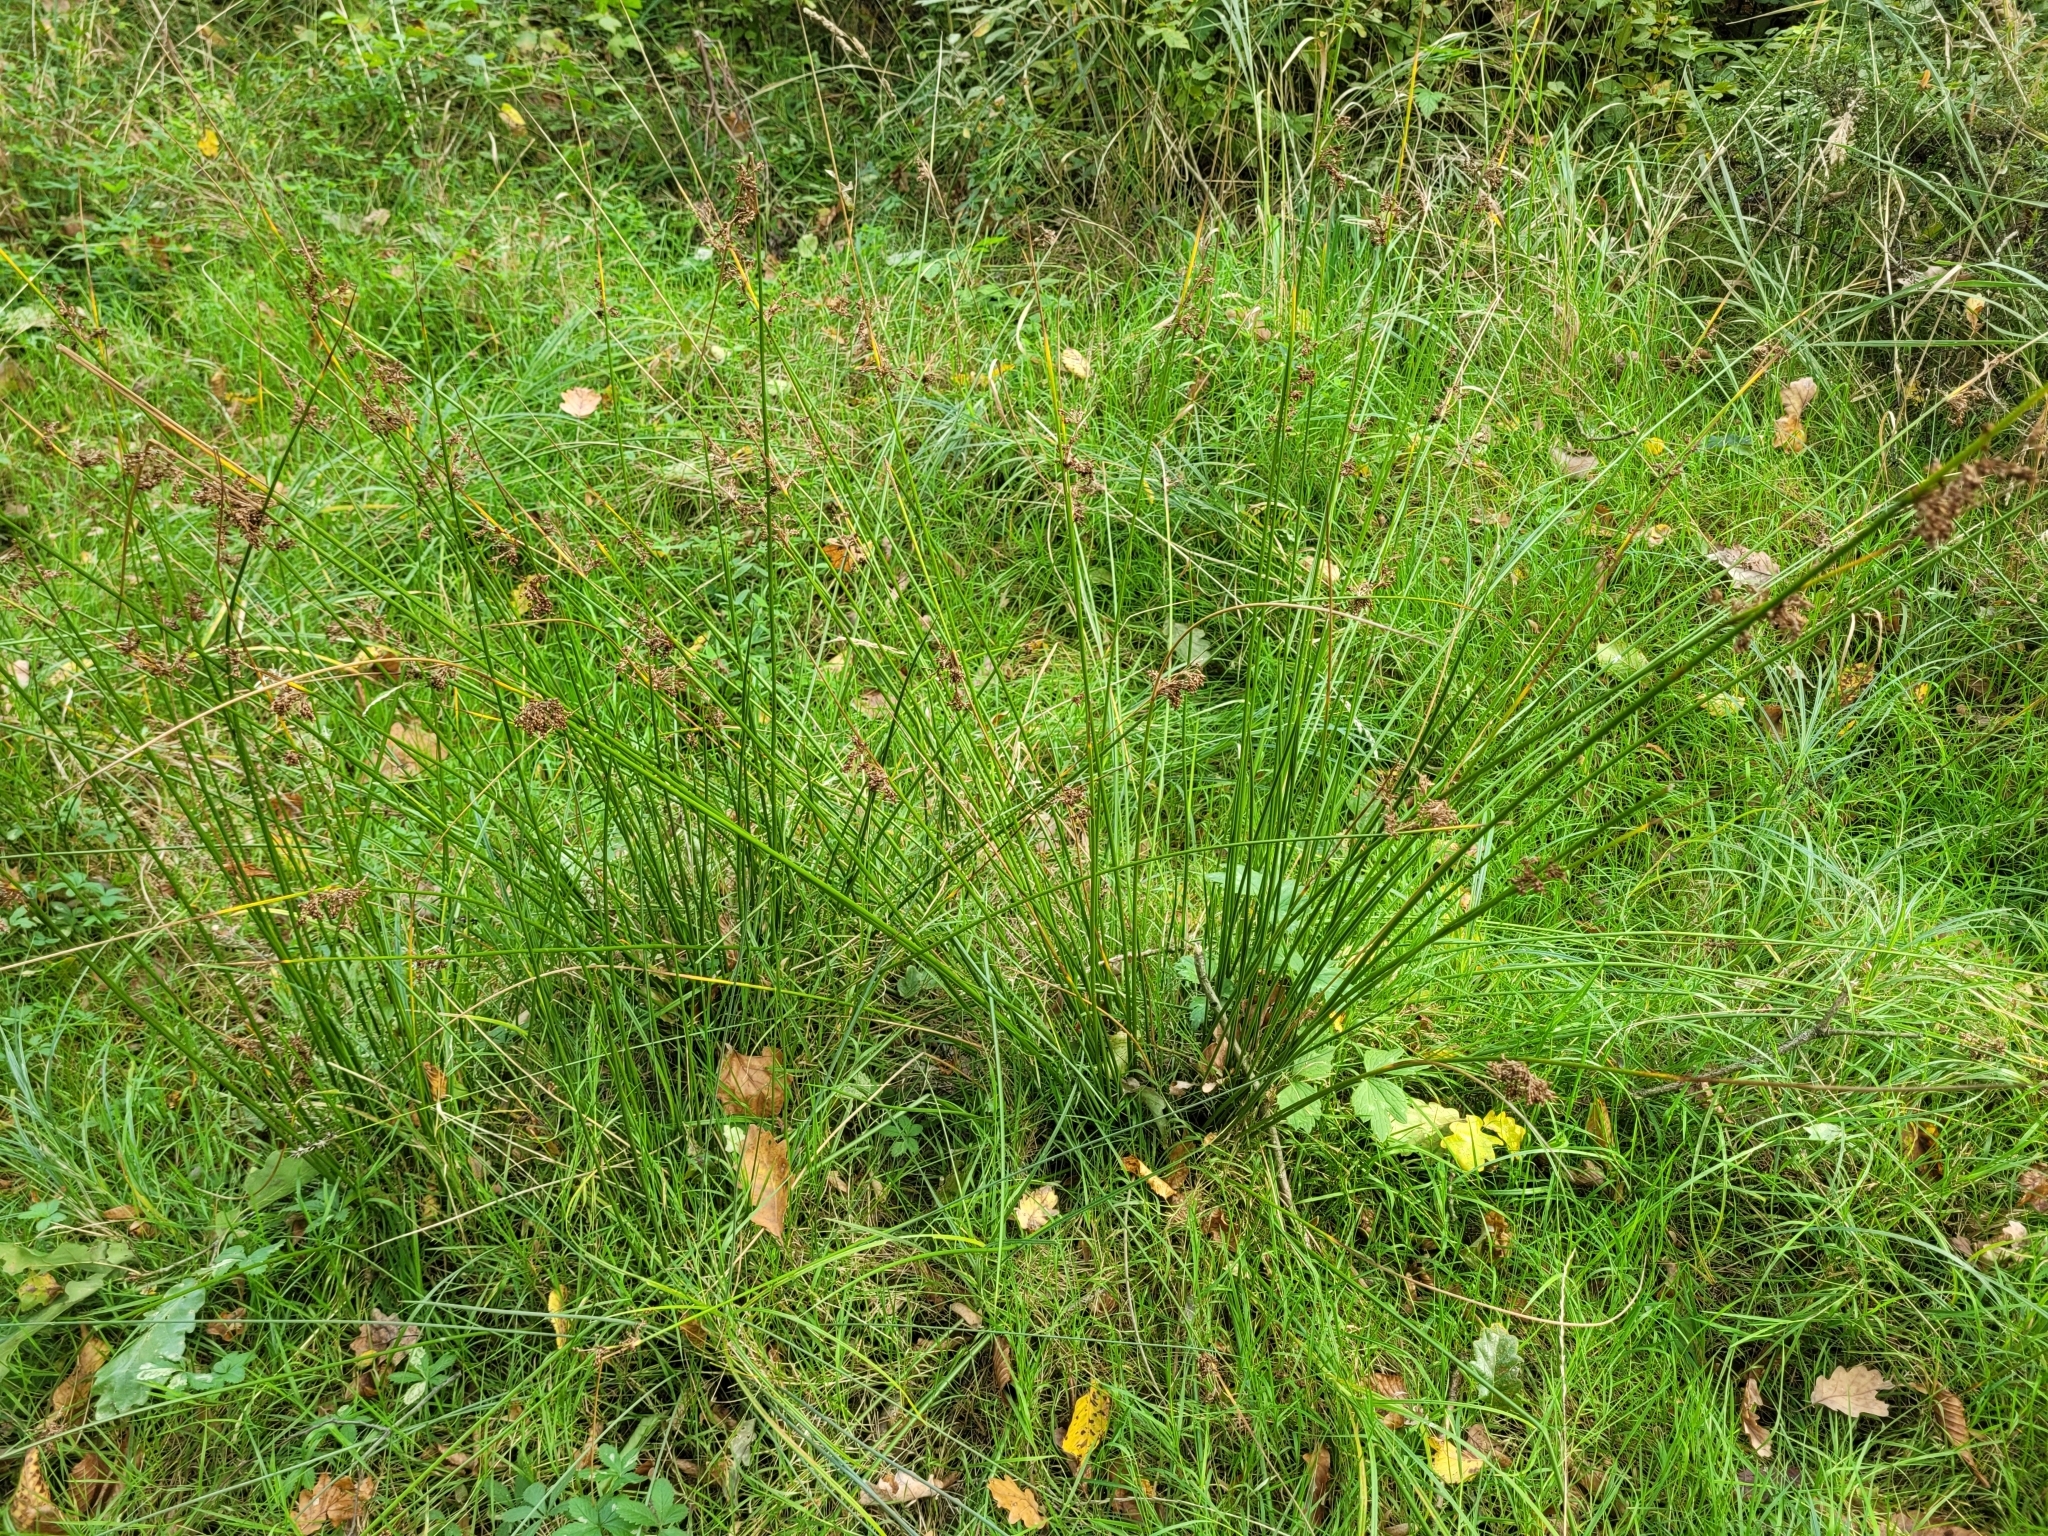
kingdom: Plantae
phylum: Tracheophyta
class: Liliopsida
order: Poales
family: Juncaceae
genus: Juncus
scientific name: Juncus effusus
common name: Soft rush
